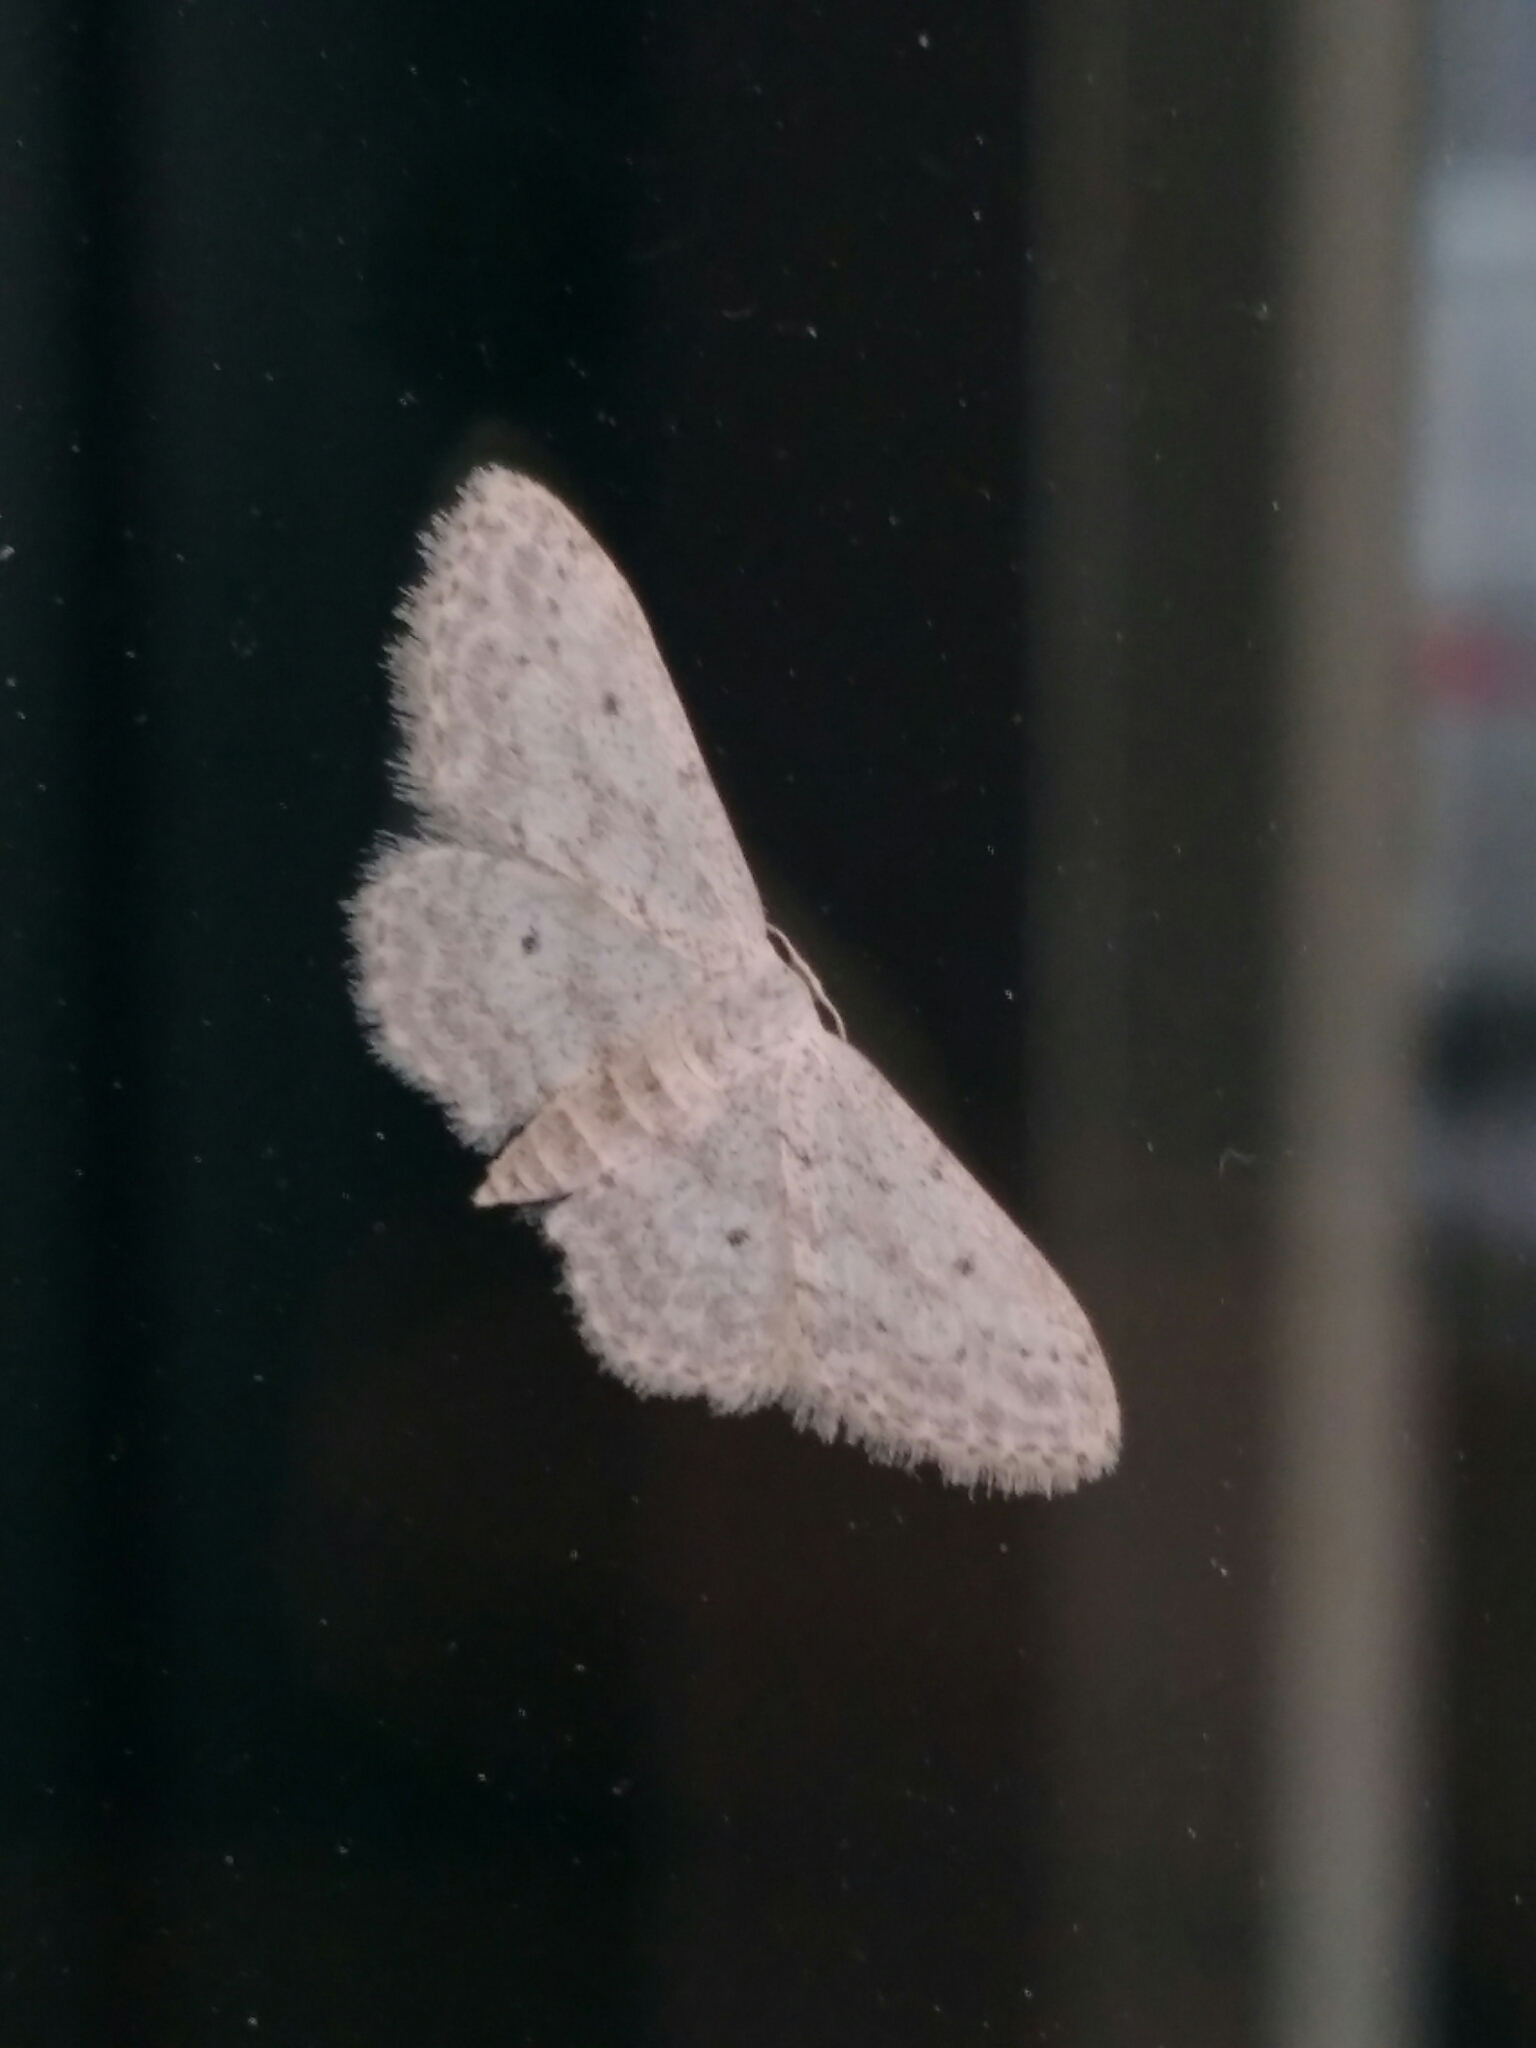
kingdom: Animalia
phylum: Arthropoda
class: Insecta
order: Lepidoptera
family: Geometridae
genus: Idaea
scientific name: Idaea seriata
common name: Small dusty wave
